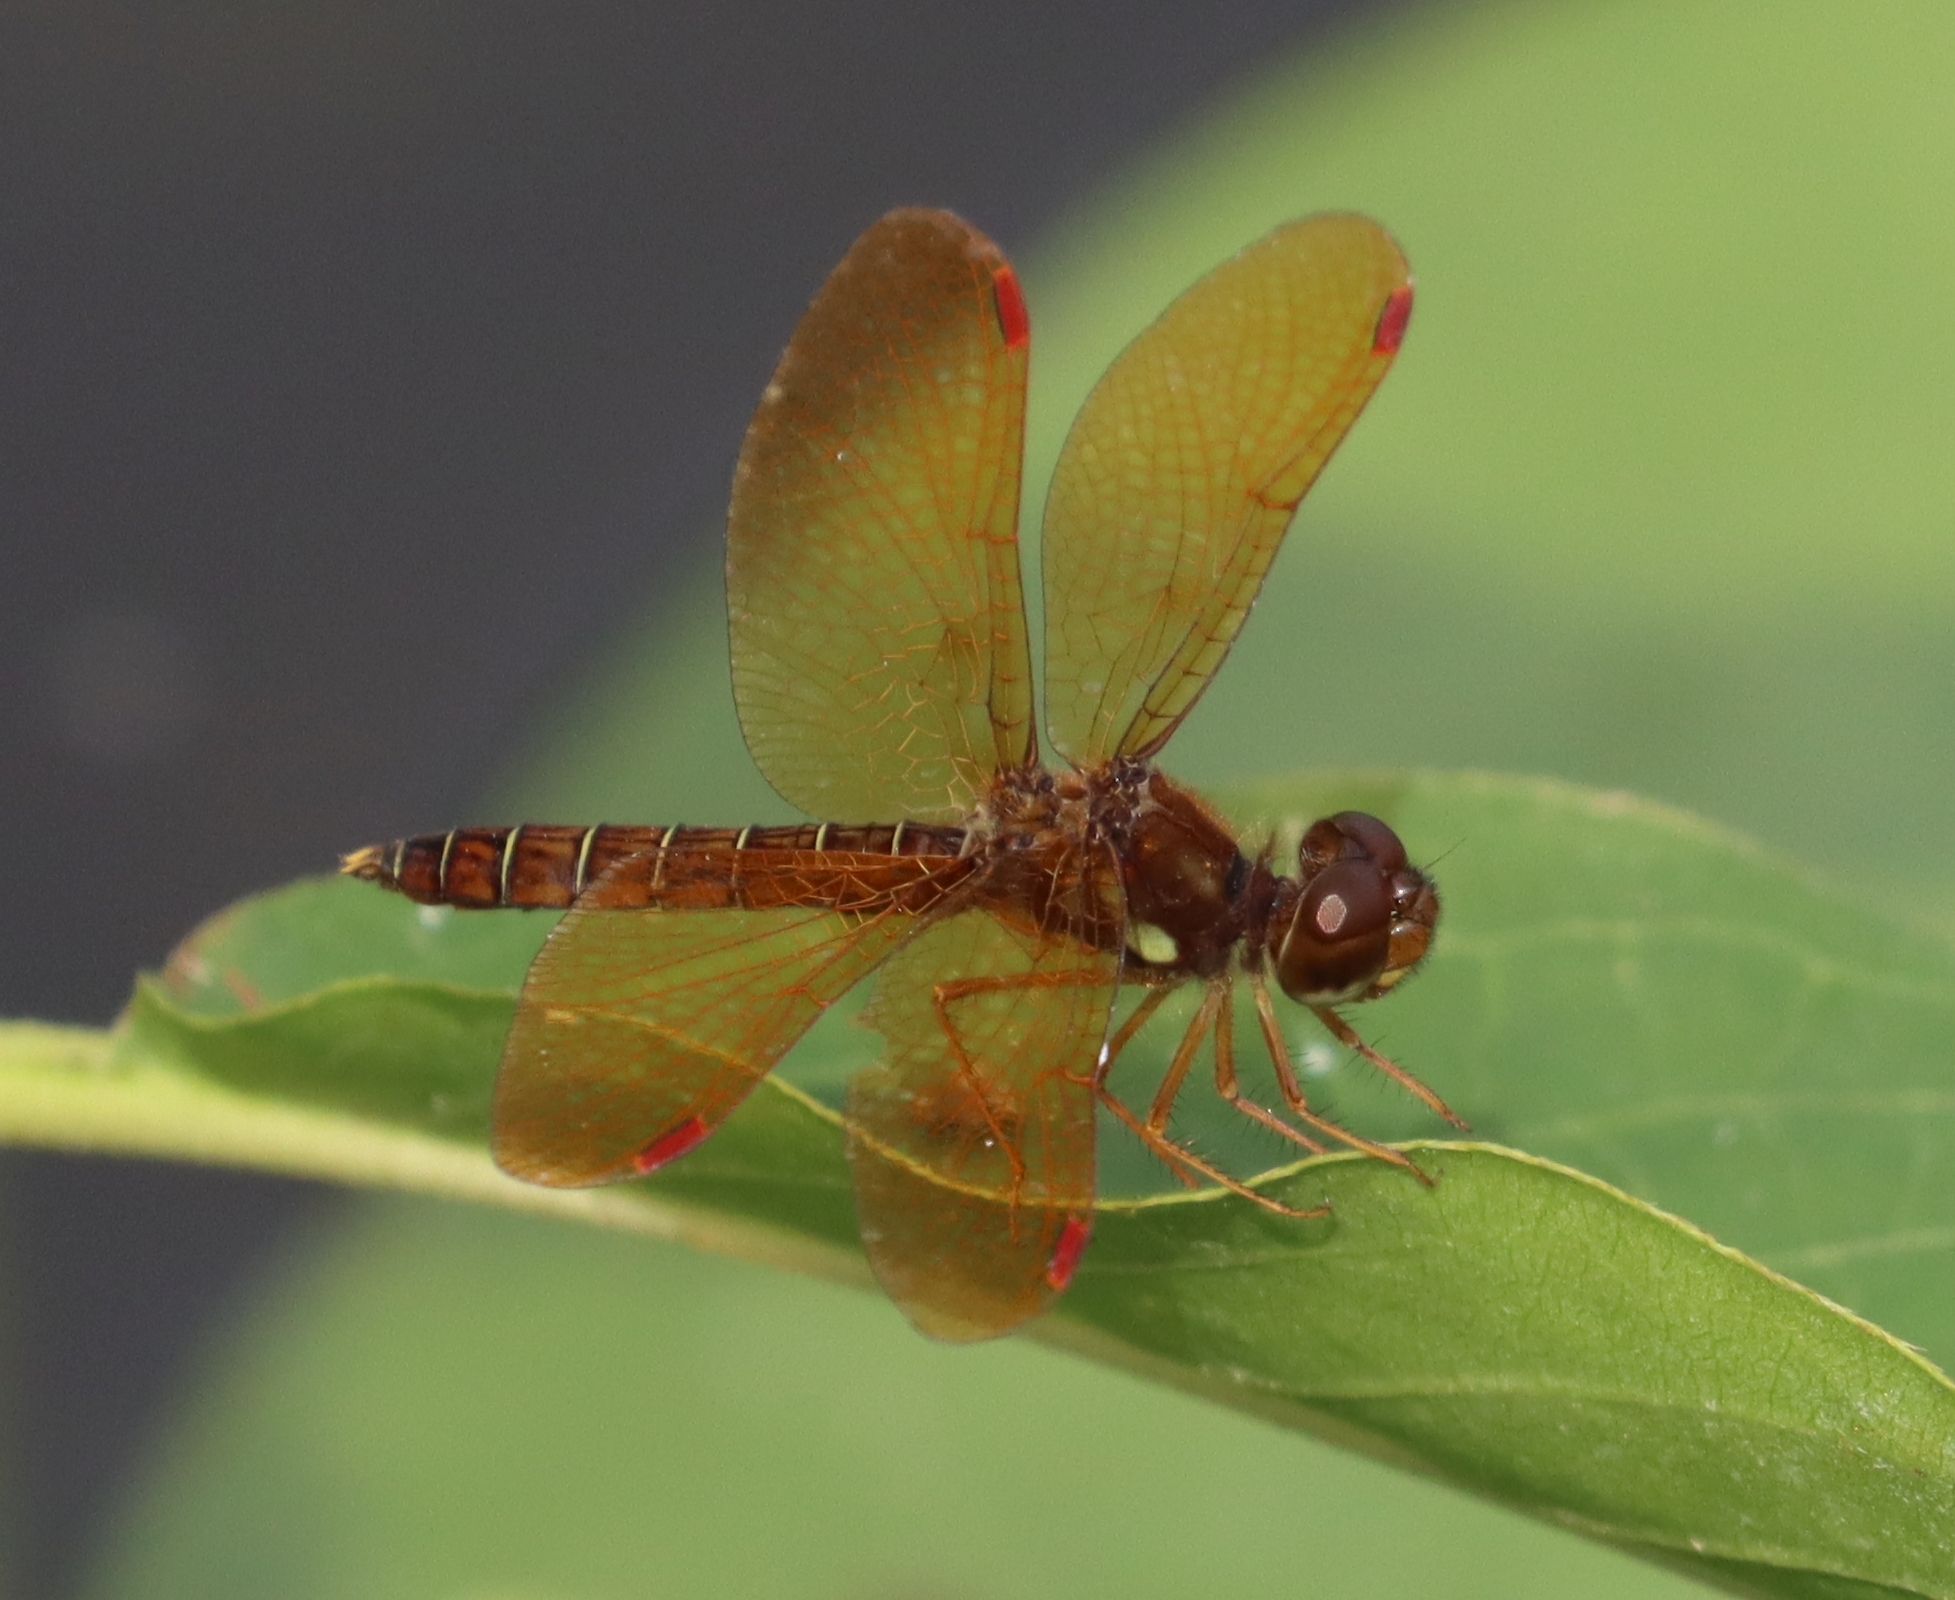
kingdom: Animalia
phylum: Arthropoda
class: Insecta
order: Odonata
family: Libellulidae
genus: Perithemis
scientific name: Perithemis tenera
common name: Eastern amberwing
